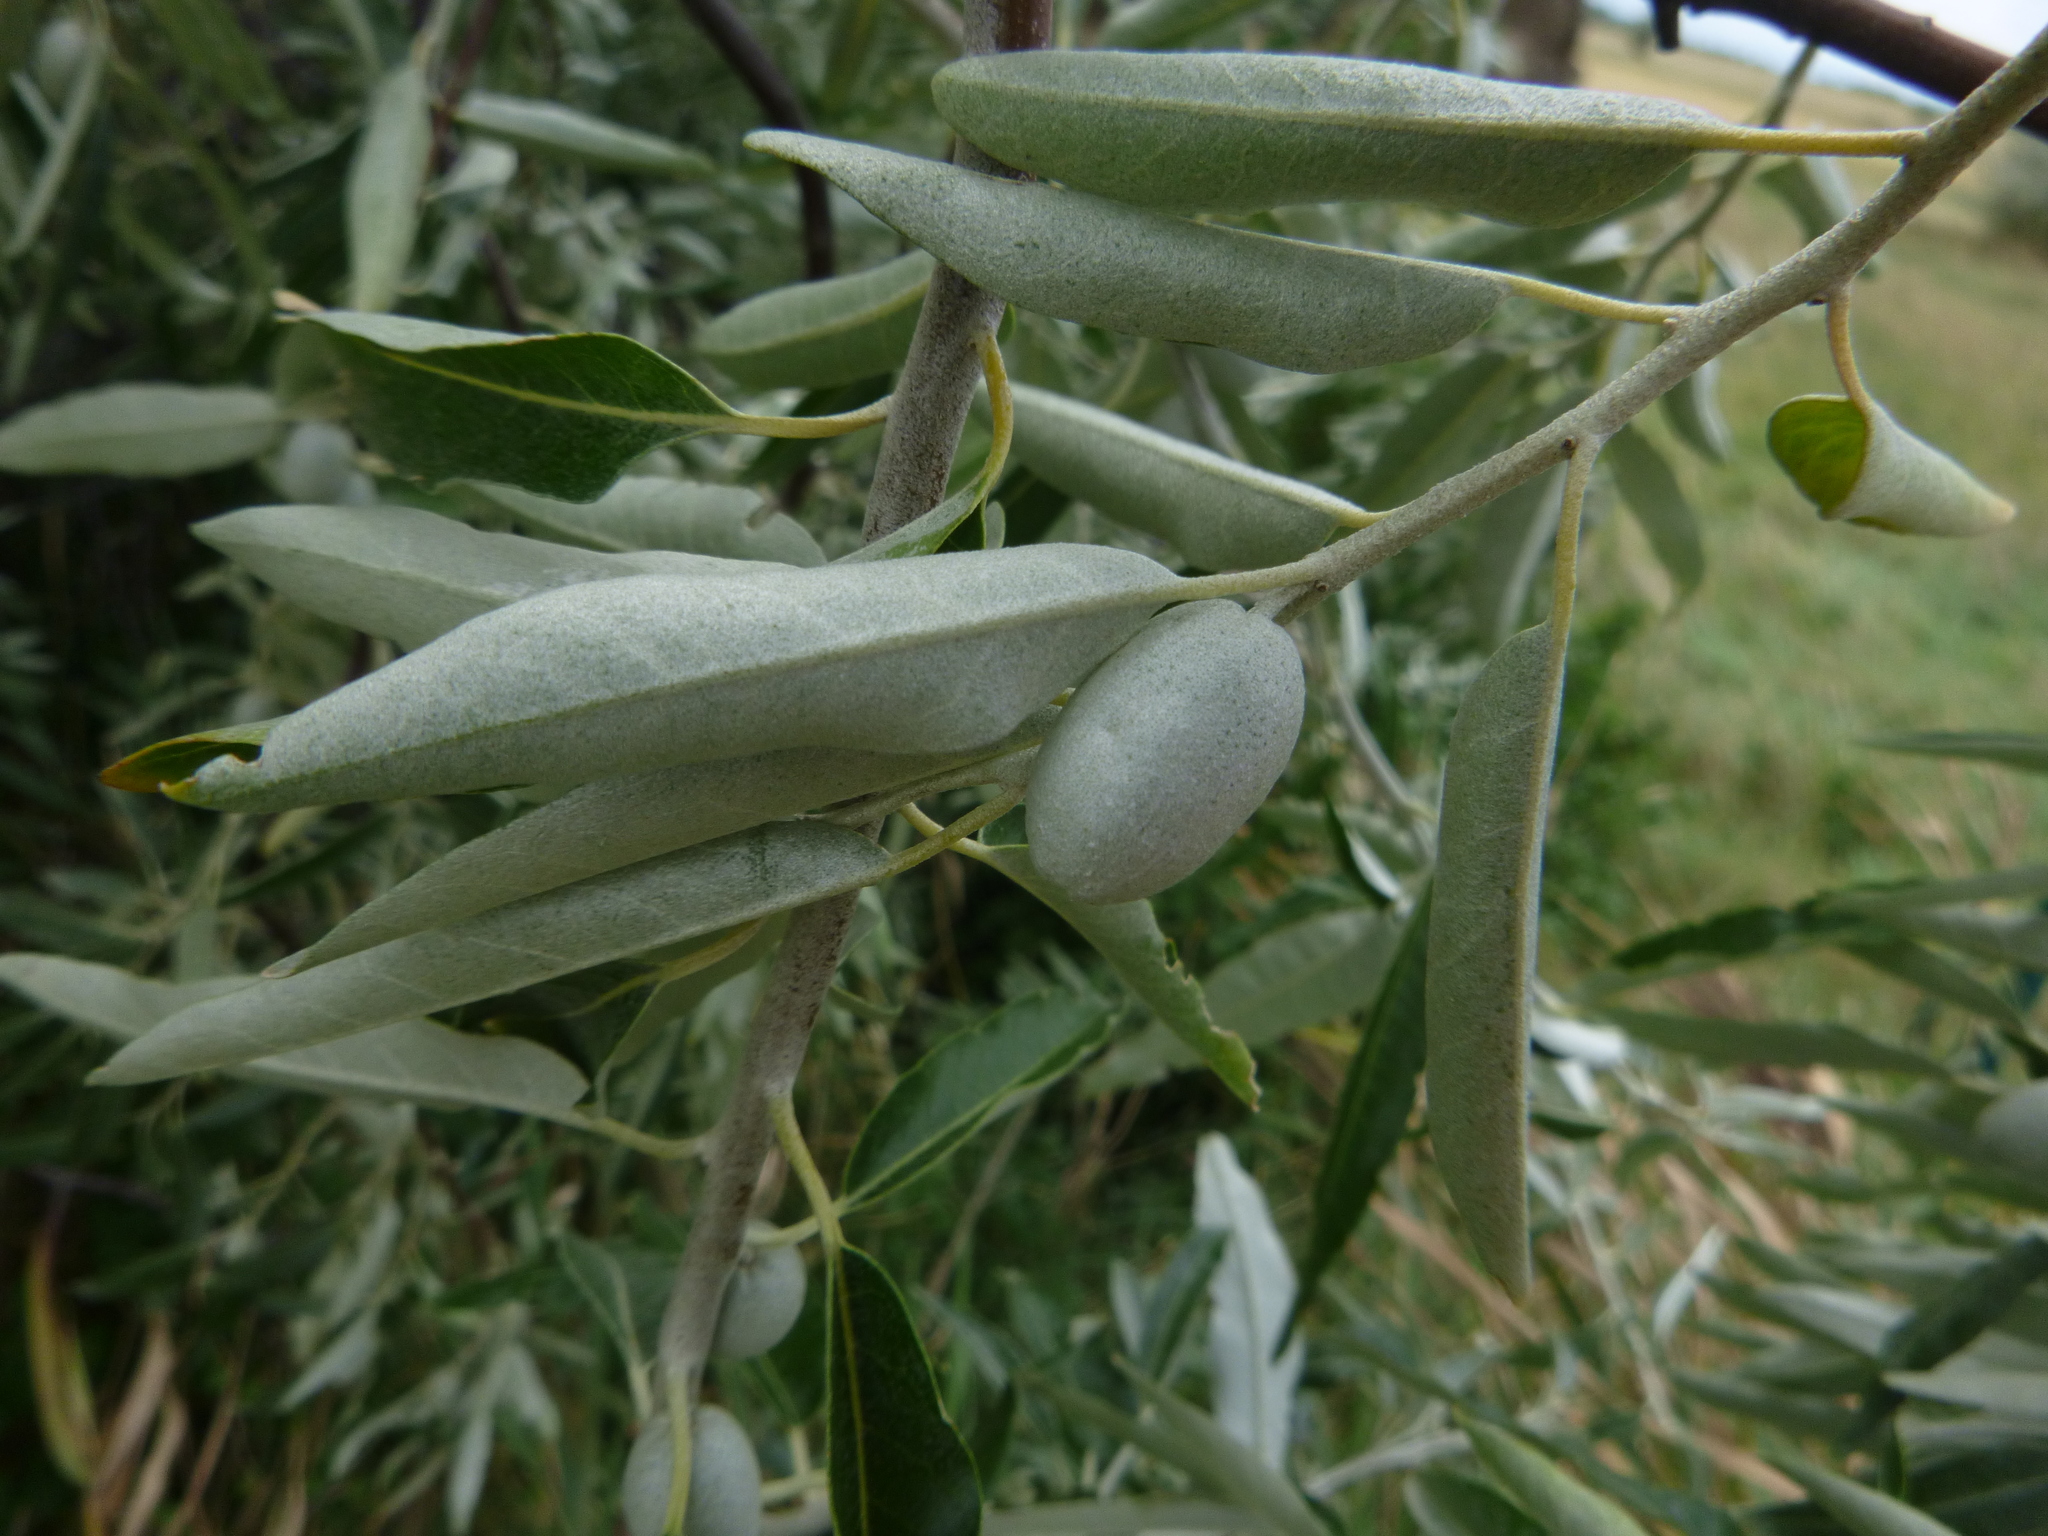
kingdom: Plantae
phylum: Tracheophyta
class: Magnoliopsida
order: Rosales
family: Elaeagnaceae
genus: Elaeagnus
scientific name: Elaeagnus angustifolia
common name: Russian olive
